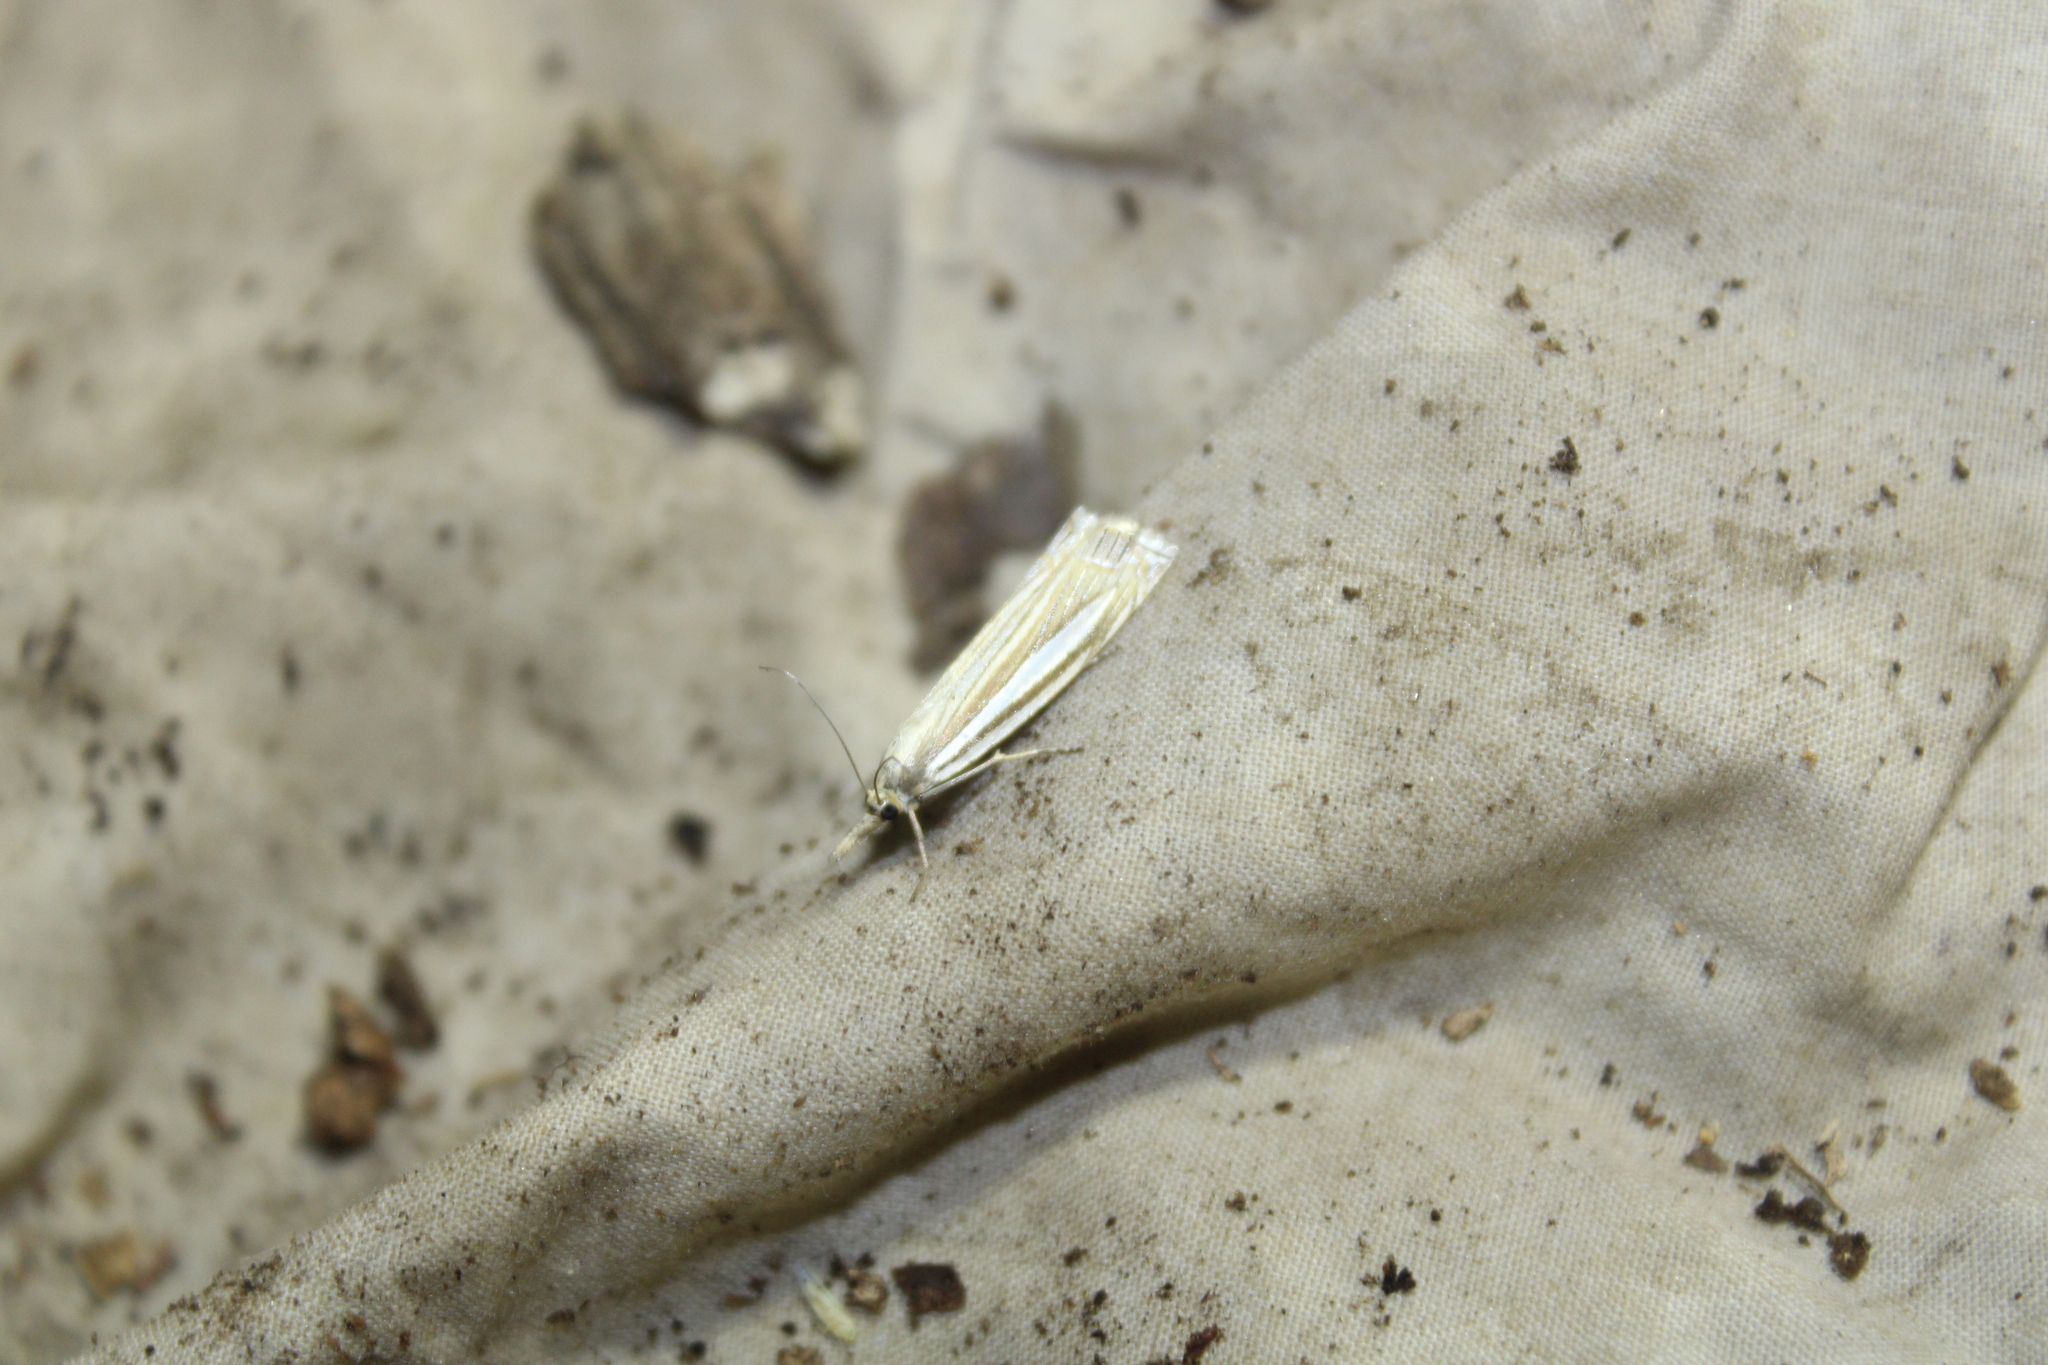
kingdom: Animalia
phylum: Arthropoda
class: Insecta
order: Lepidoptera
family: Crambidae
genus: Crambus
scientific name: Crambus laqueatellus
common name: Eastern grass-veneer
